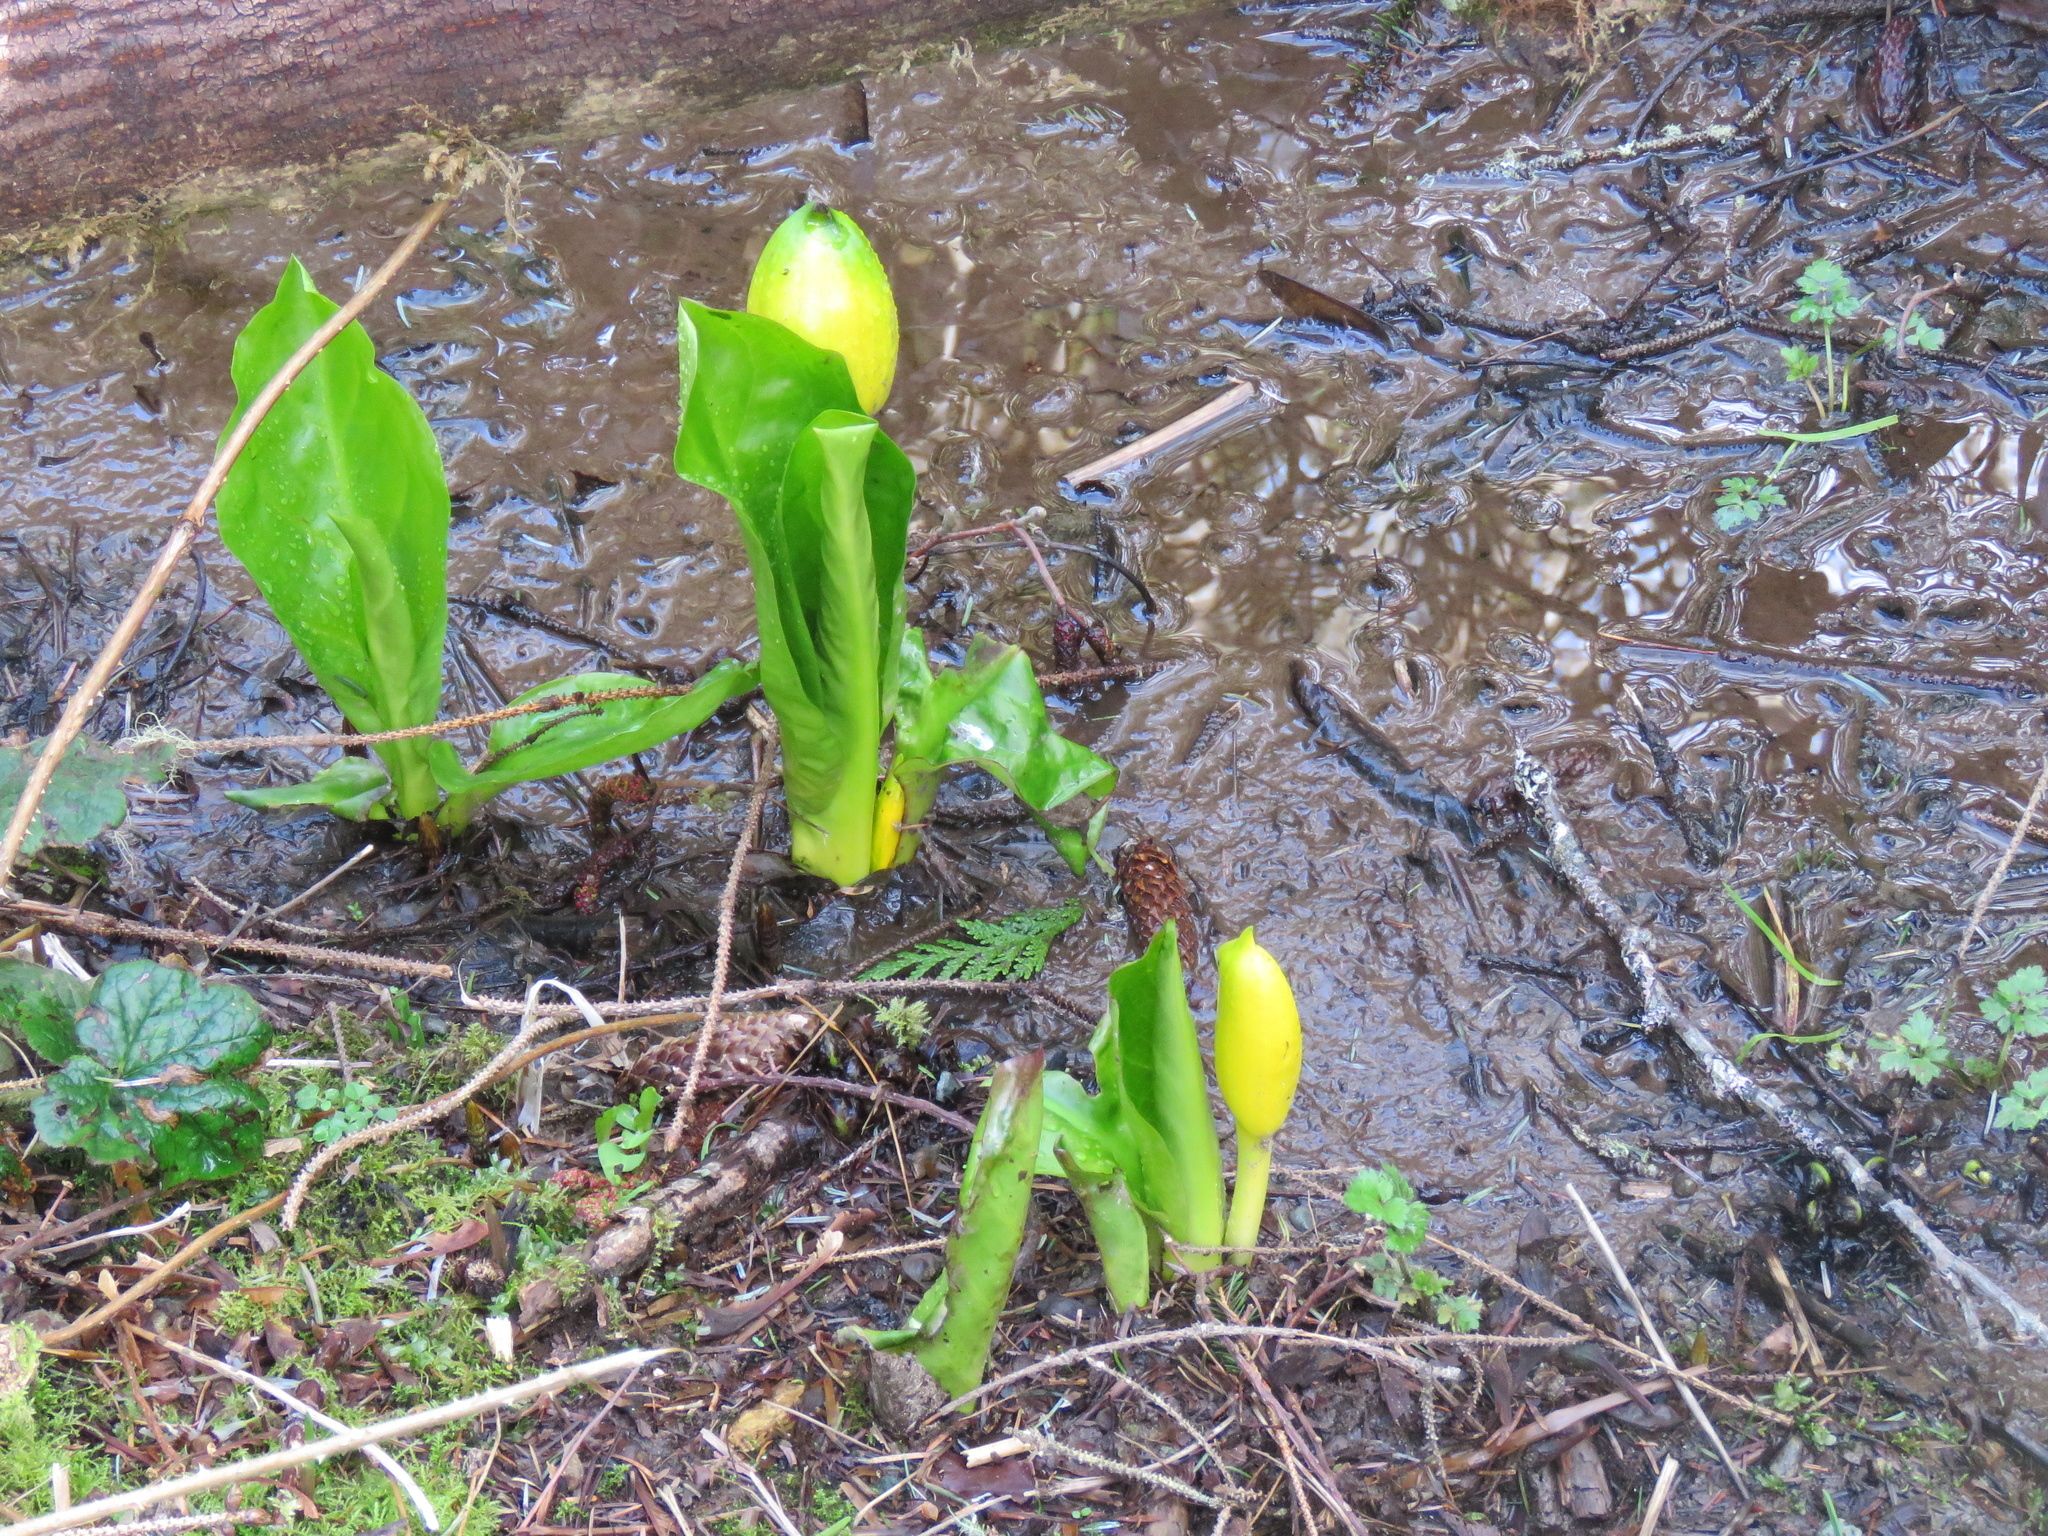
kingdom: Plantae
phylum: Tracheophyta
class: Liliopsida
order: Alismatales
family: Araceae
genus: Lysichiton
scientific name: Lysichiton americanus
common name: American skunk cabbage
